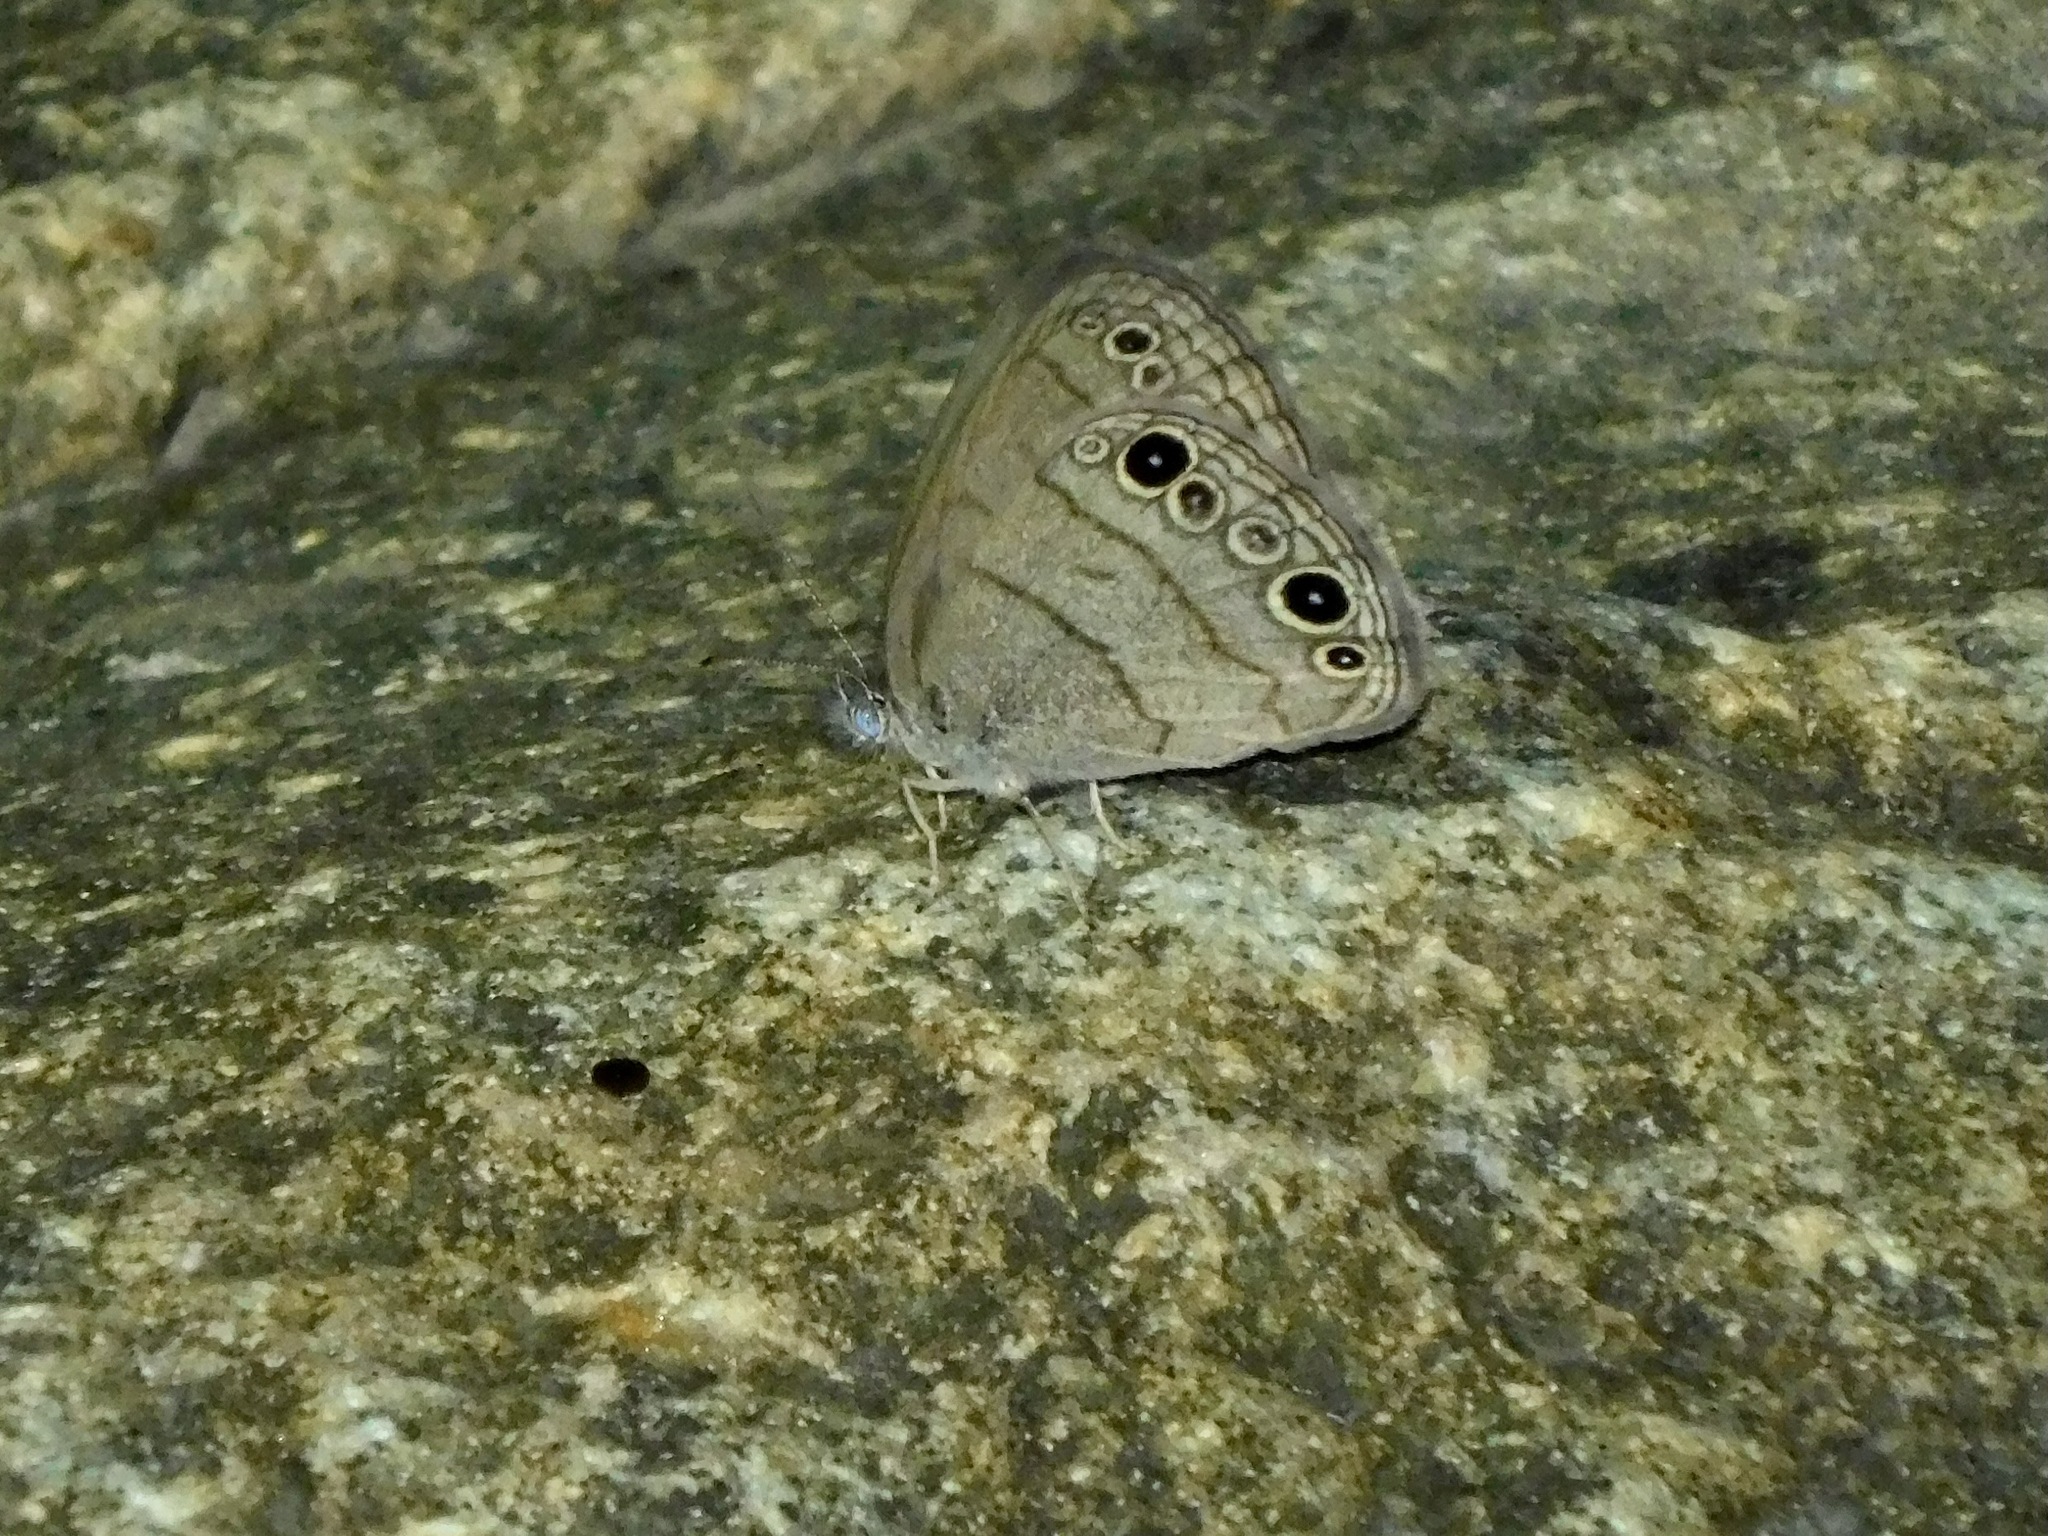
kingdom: Animalia
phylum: Arthropoda
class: Insecta
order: Lepidoptera
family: Nymphalidae
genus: Hermeuptychia
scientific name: Hermeuptychia hermes
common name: Hermes satyr
